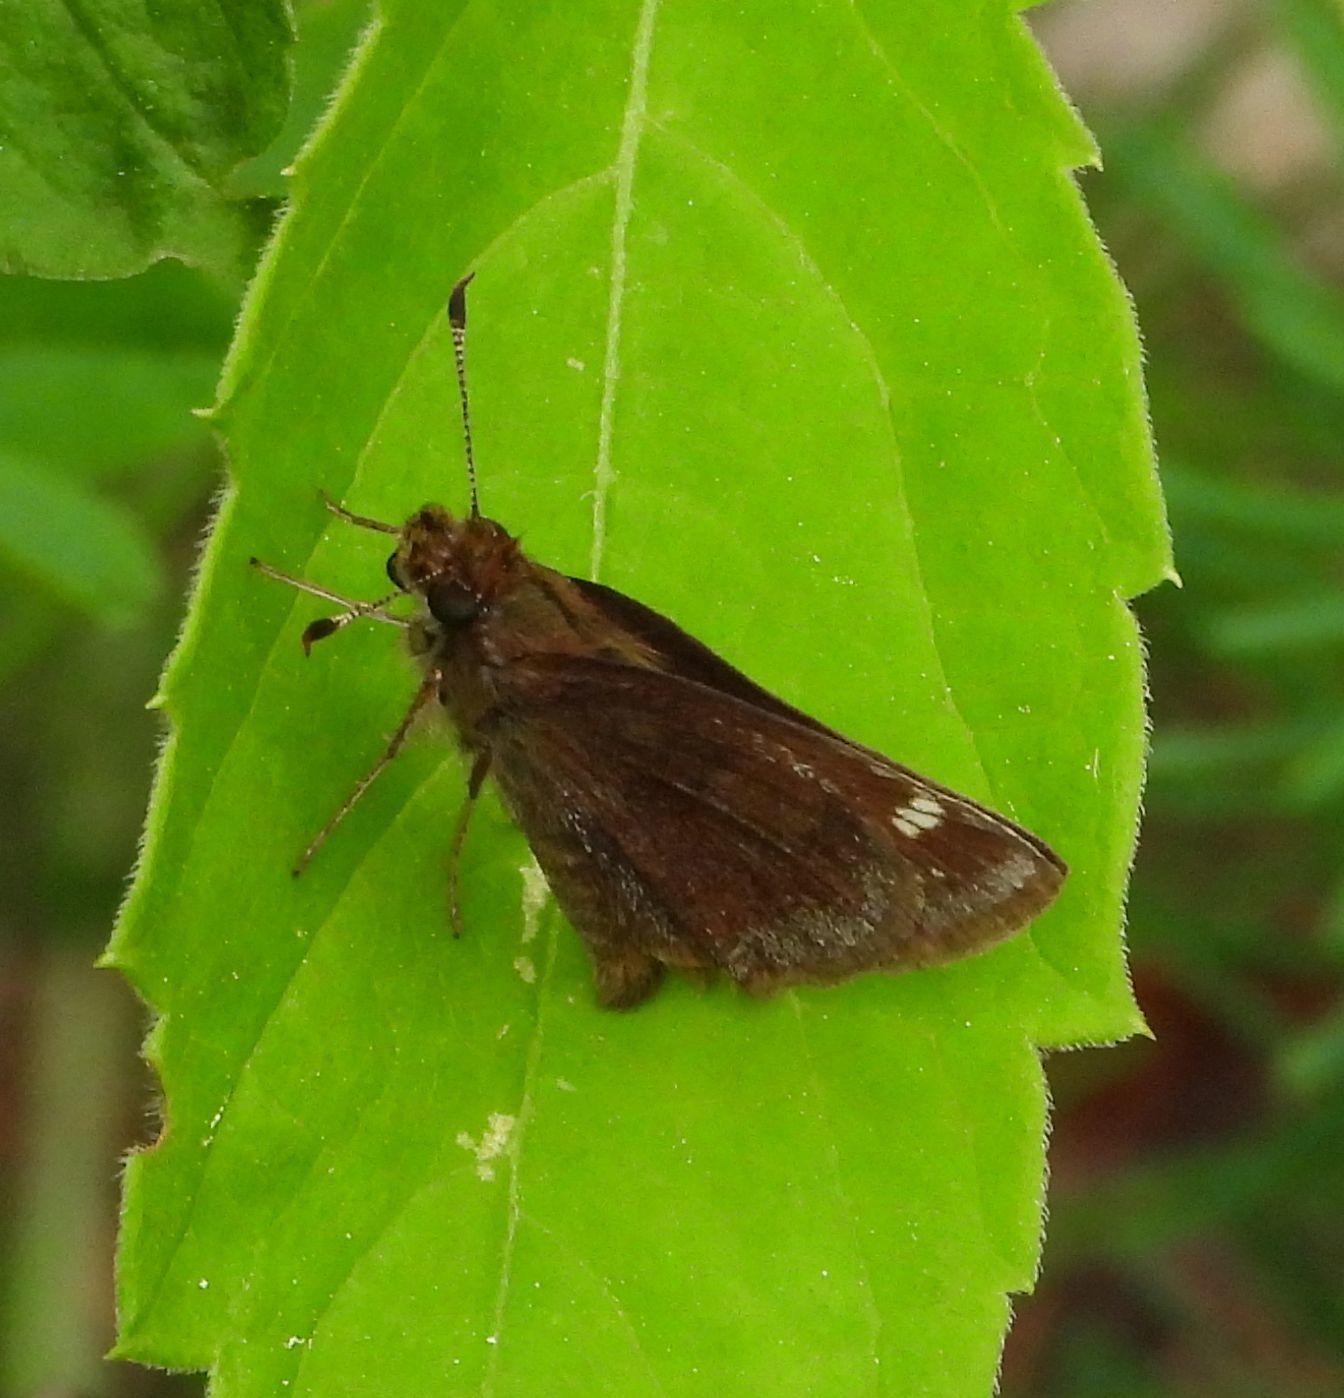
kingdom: Animalia
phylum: Arthropoda
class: Insecta
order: Lepidoptera
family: Hesperiidae
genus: Lon
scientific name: Lon hobomok
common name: Hobomok skipper
